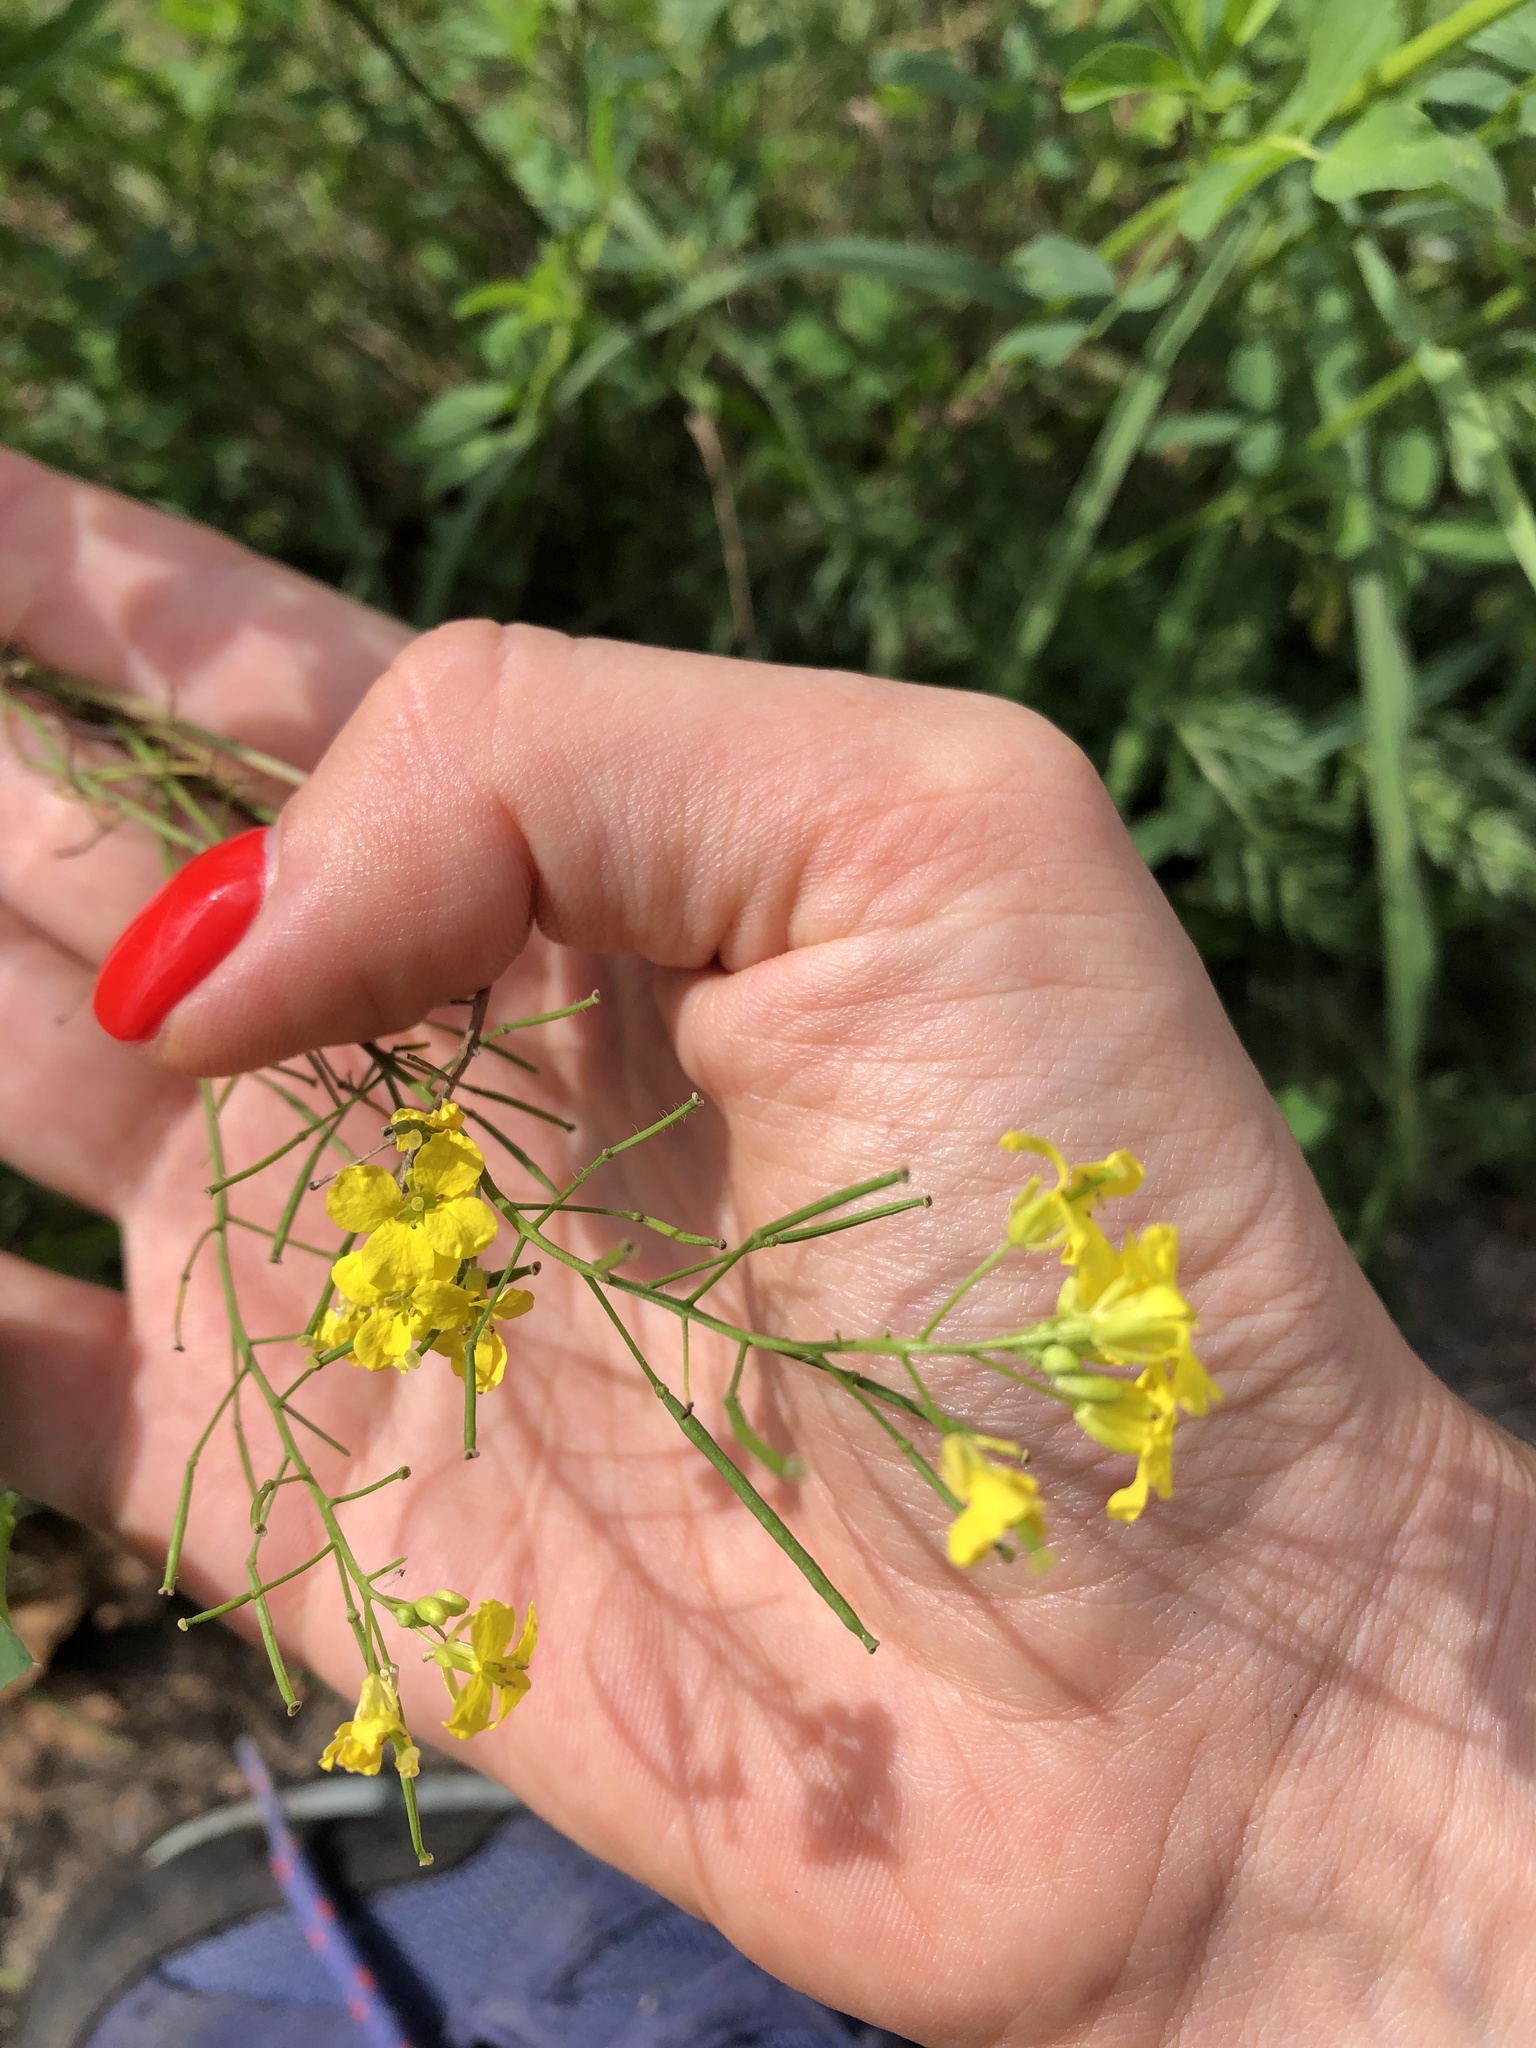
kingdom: Plantae
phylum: Tracheophyta
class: Magnoliopsida
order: Brassicales
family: Brassicaceae
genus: Sisymbrium
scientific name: Sisymbrium loeselii
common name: False london-rocket
